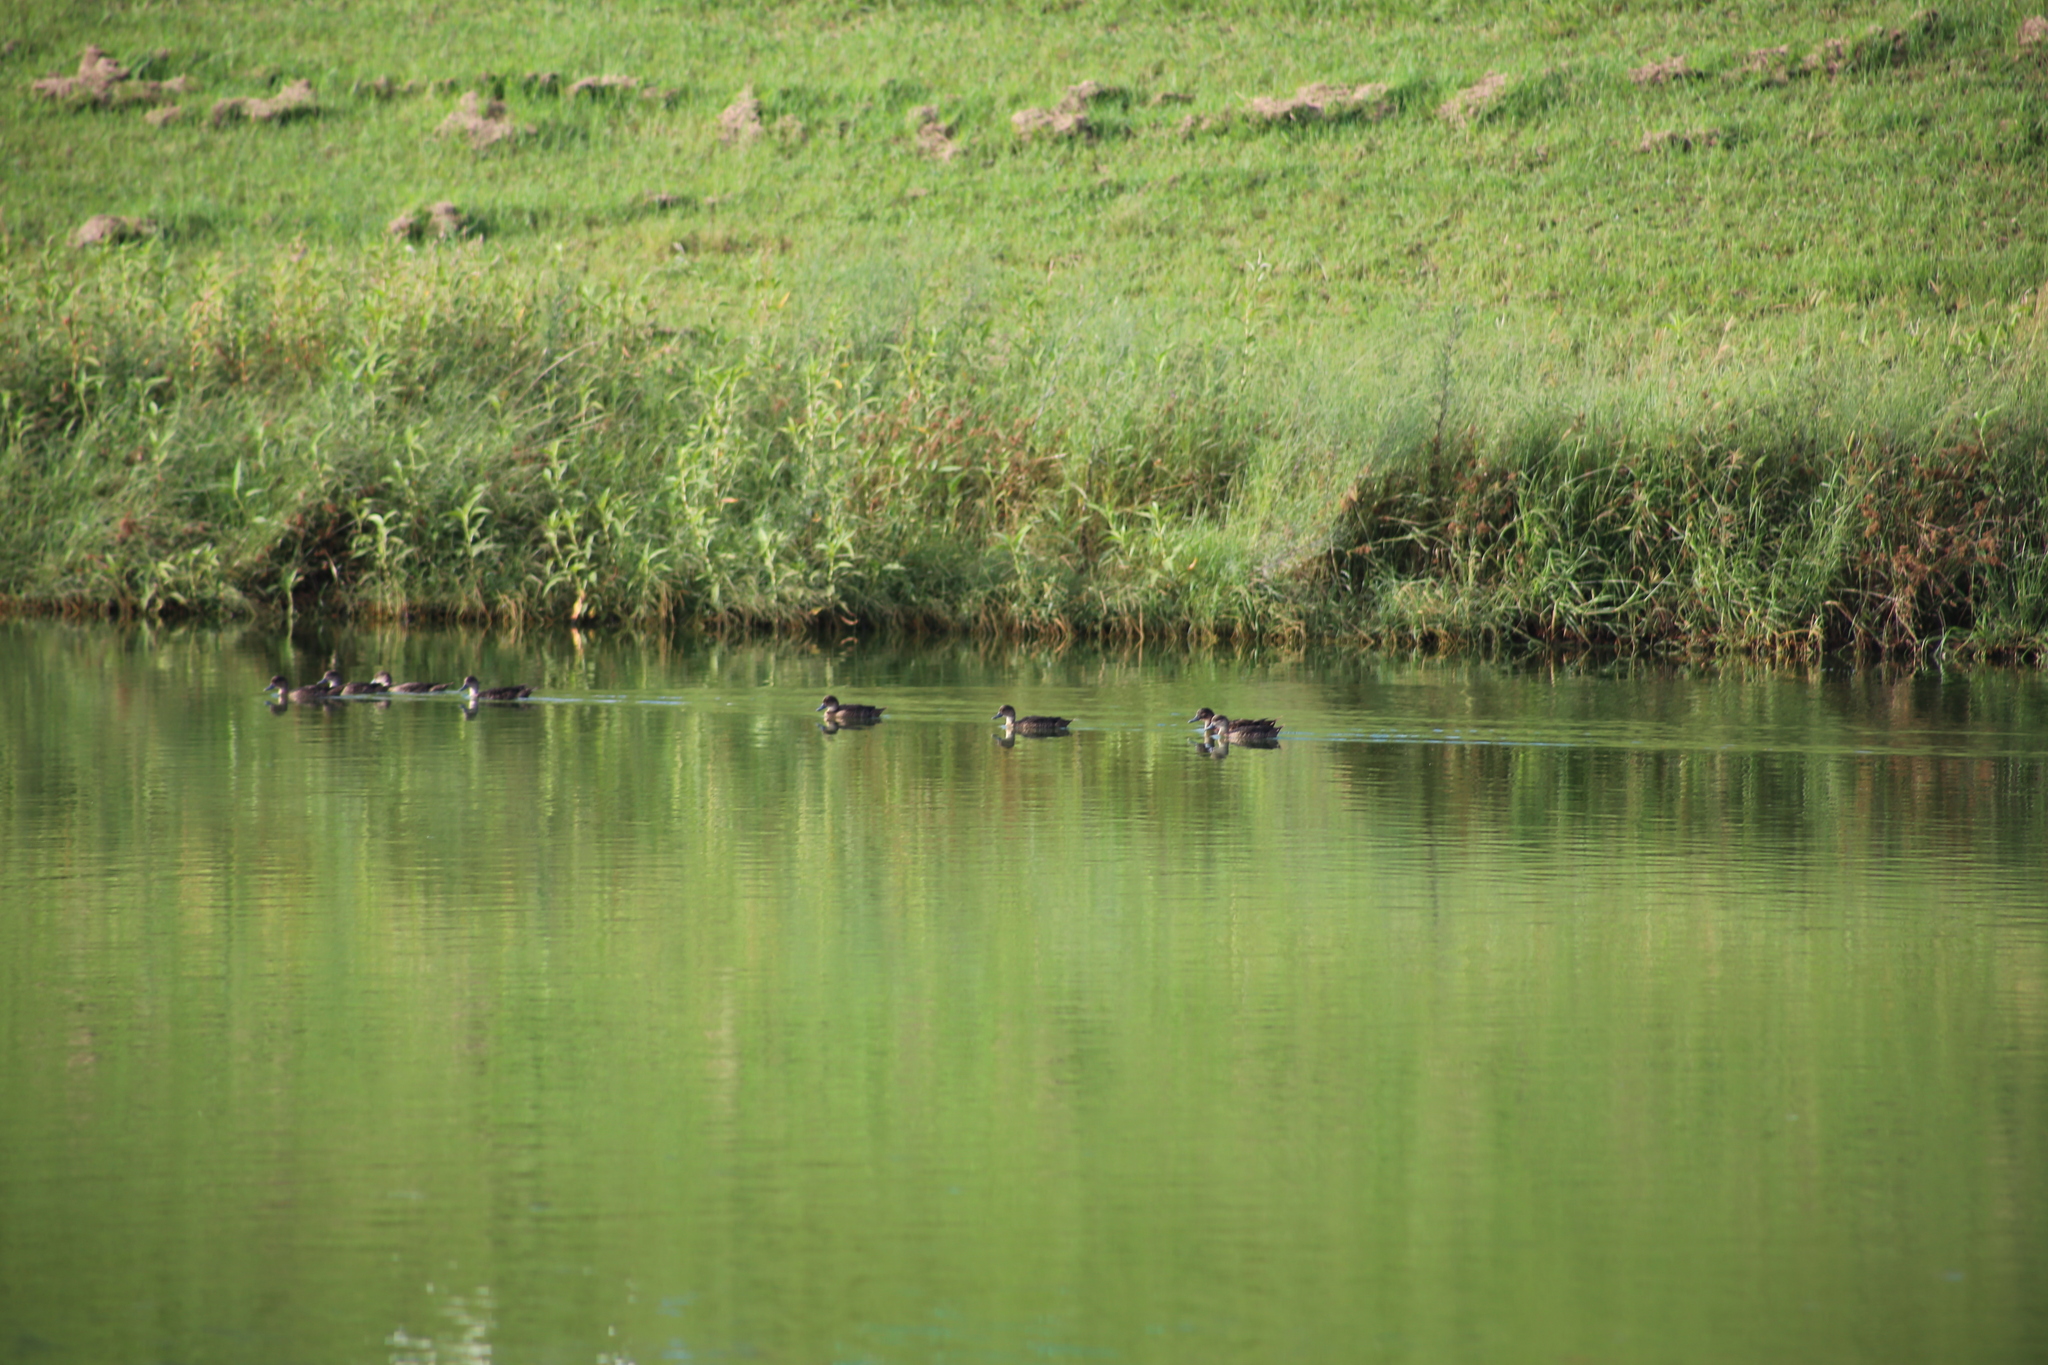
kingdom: Animalia
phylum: Chordata
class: Aves
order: Anseriformes
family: Anatidae
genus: Anas
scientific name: Anas gracilis
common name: Grey teal
